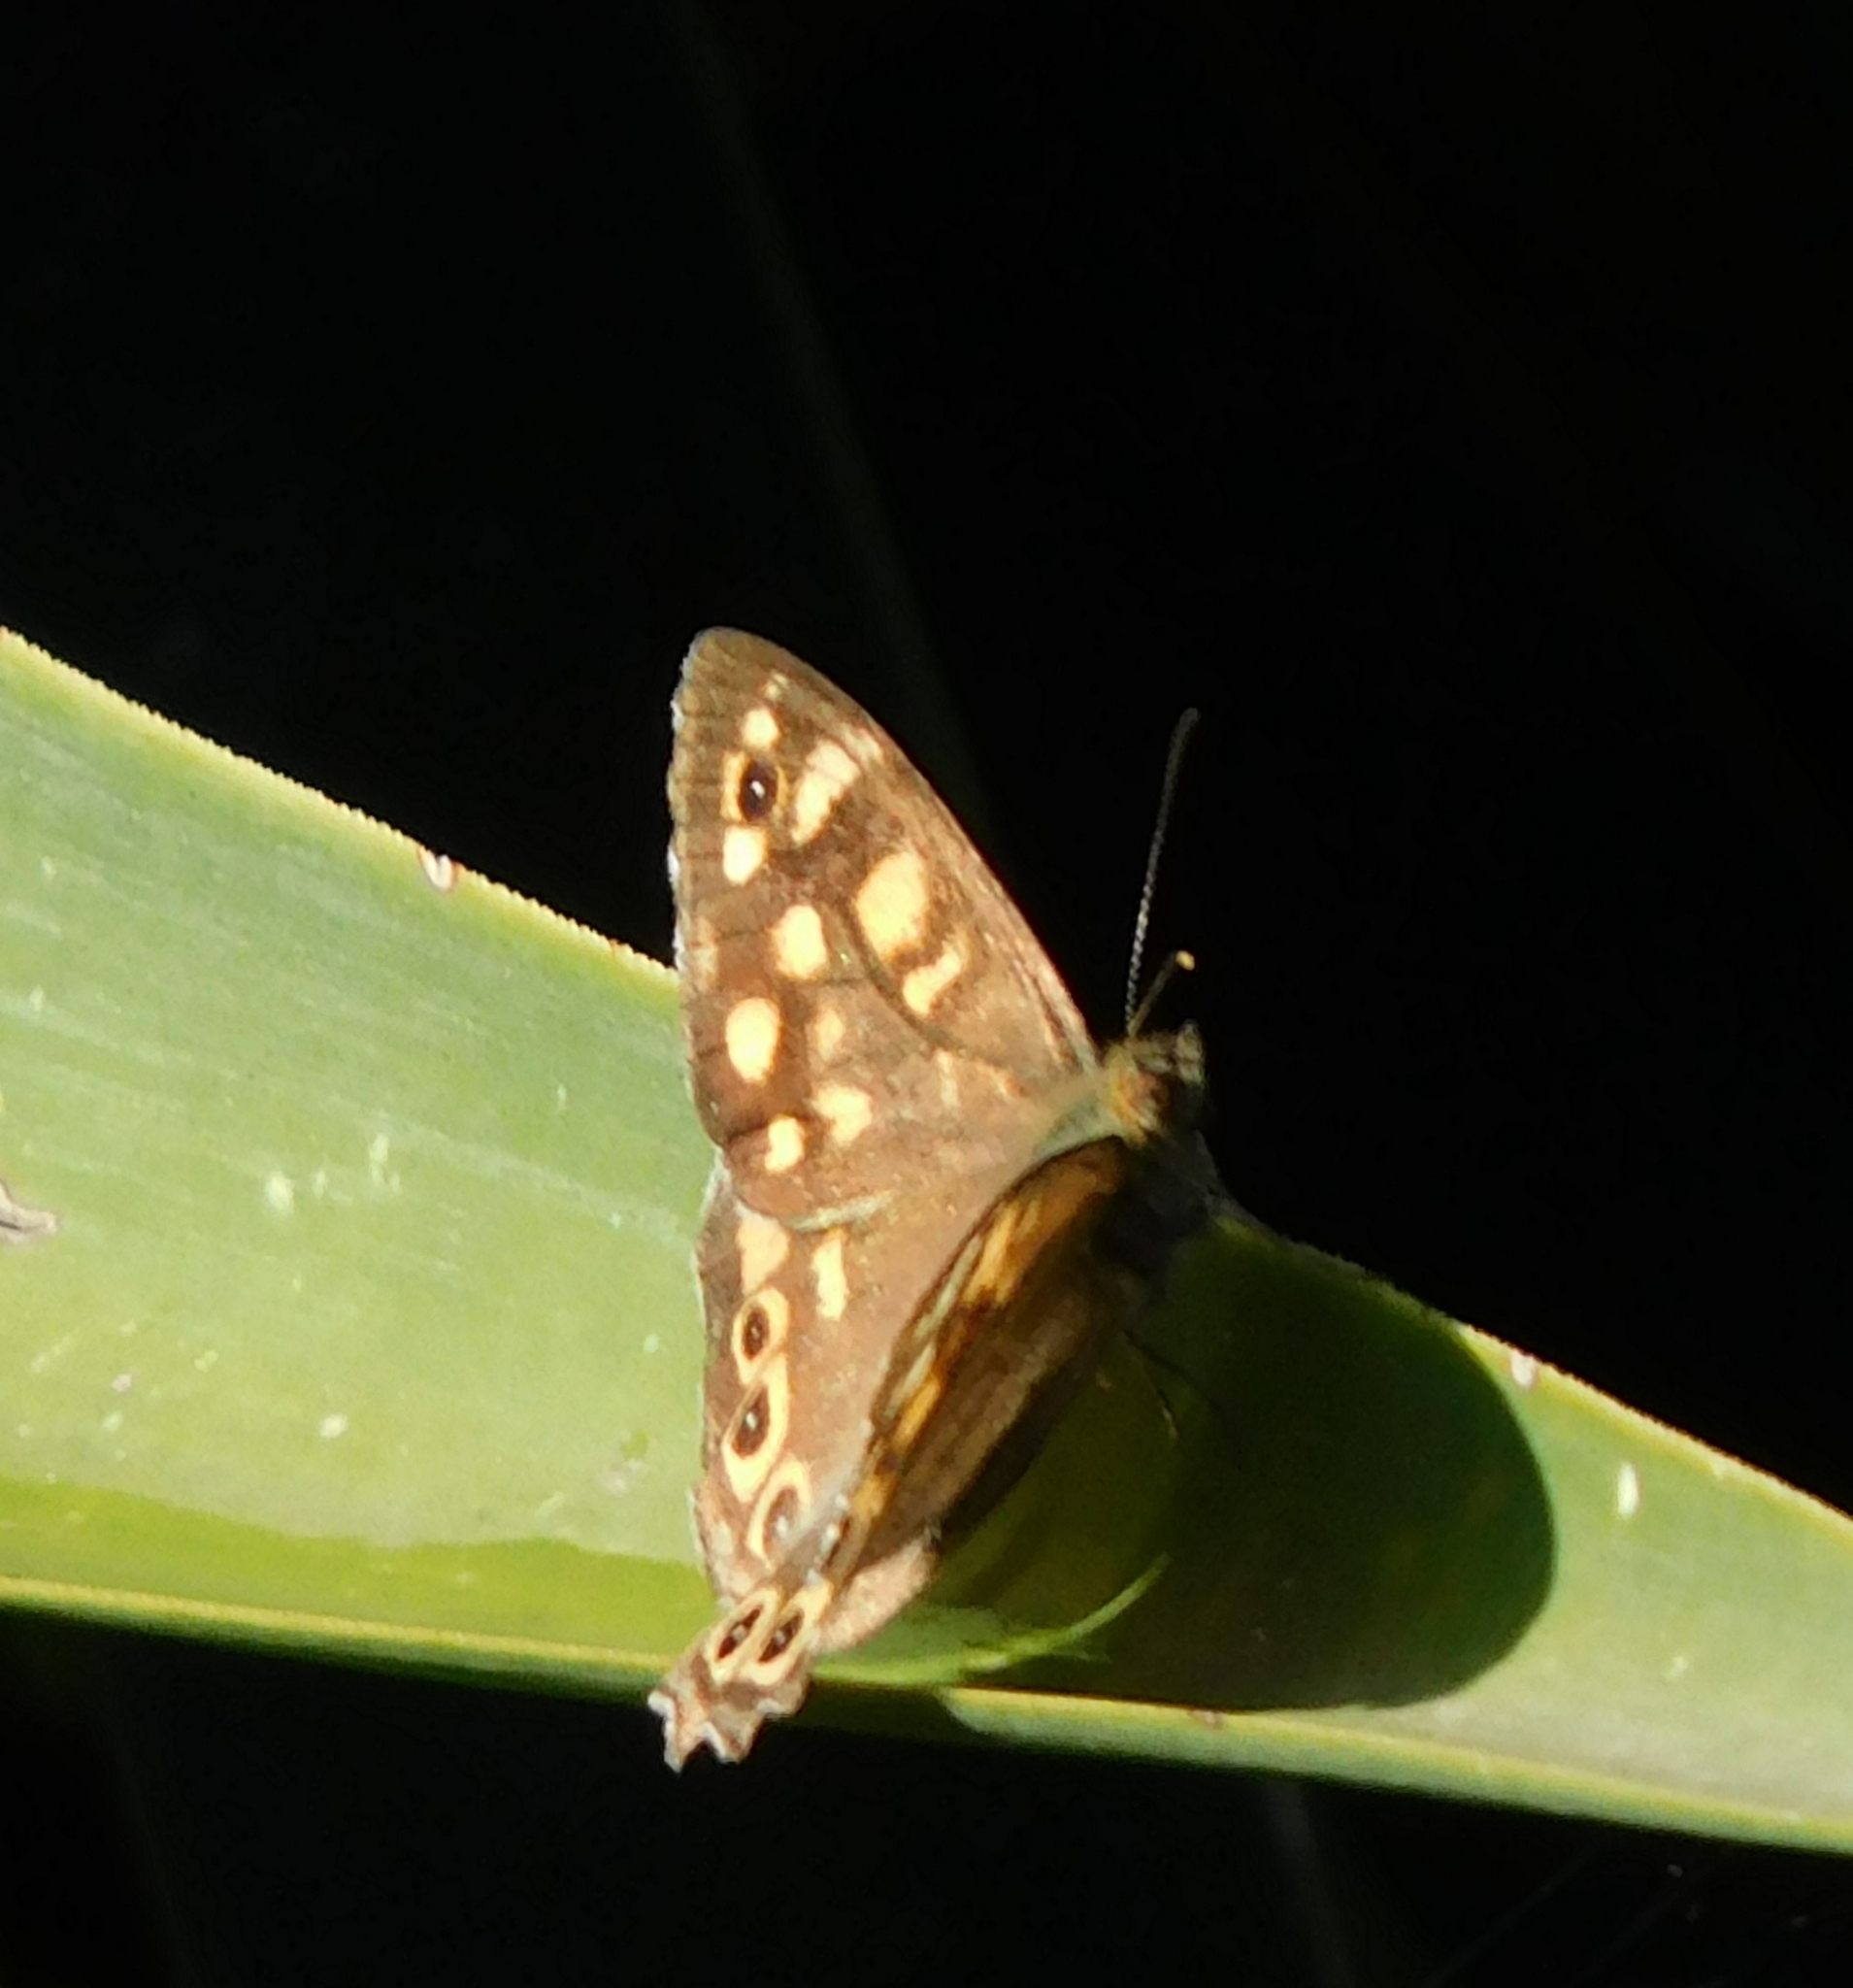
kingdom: Animalia
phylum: Arthropoda
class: Insecta
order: Lepidoptera
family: Nymphalidae
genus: Pararge
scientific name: Pararge aegeria
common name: Speckled wood
